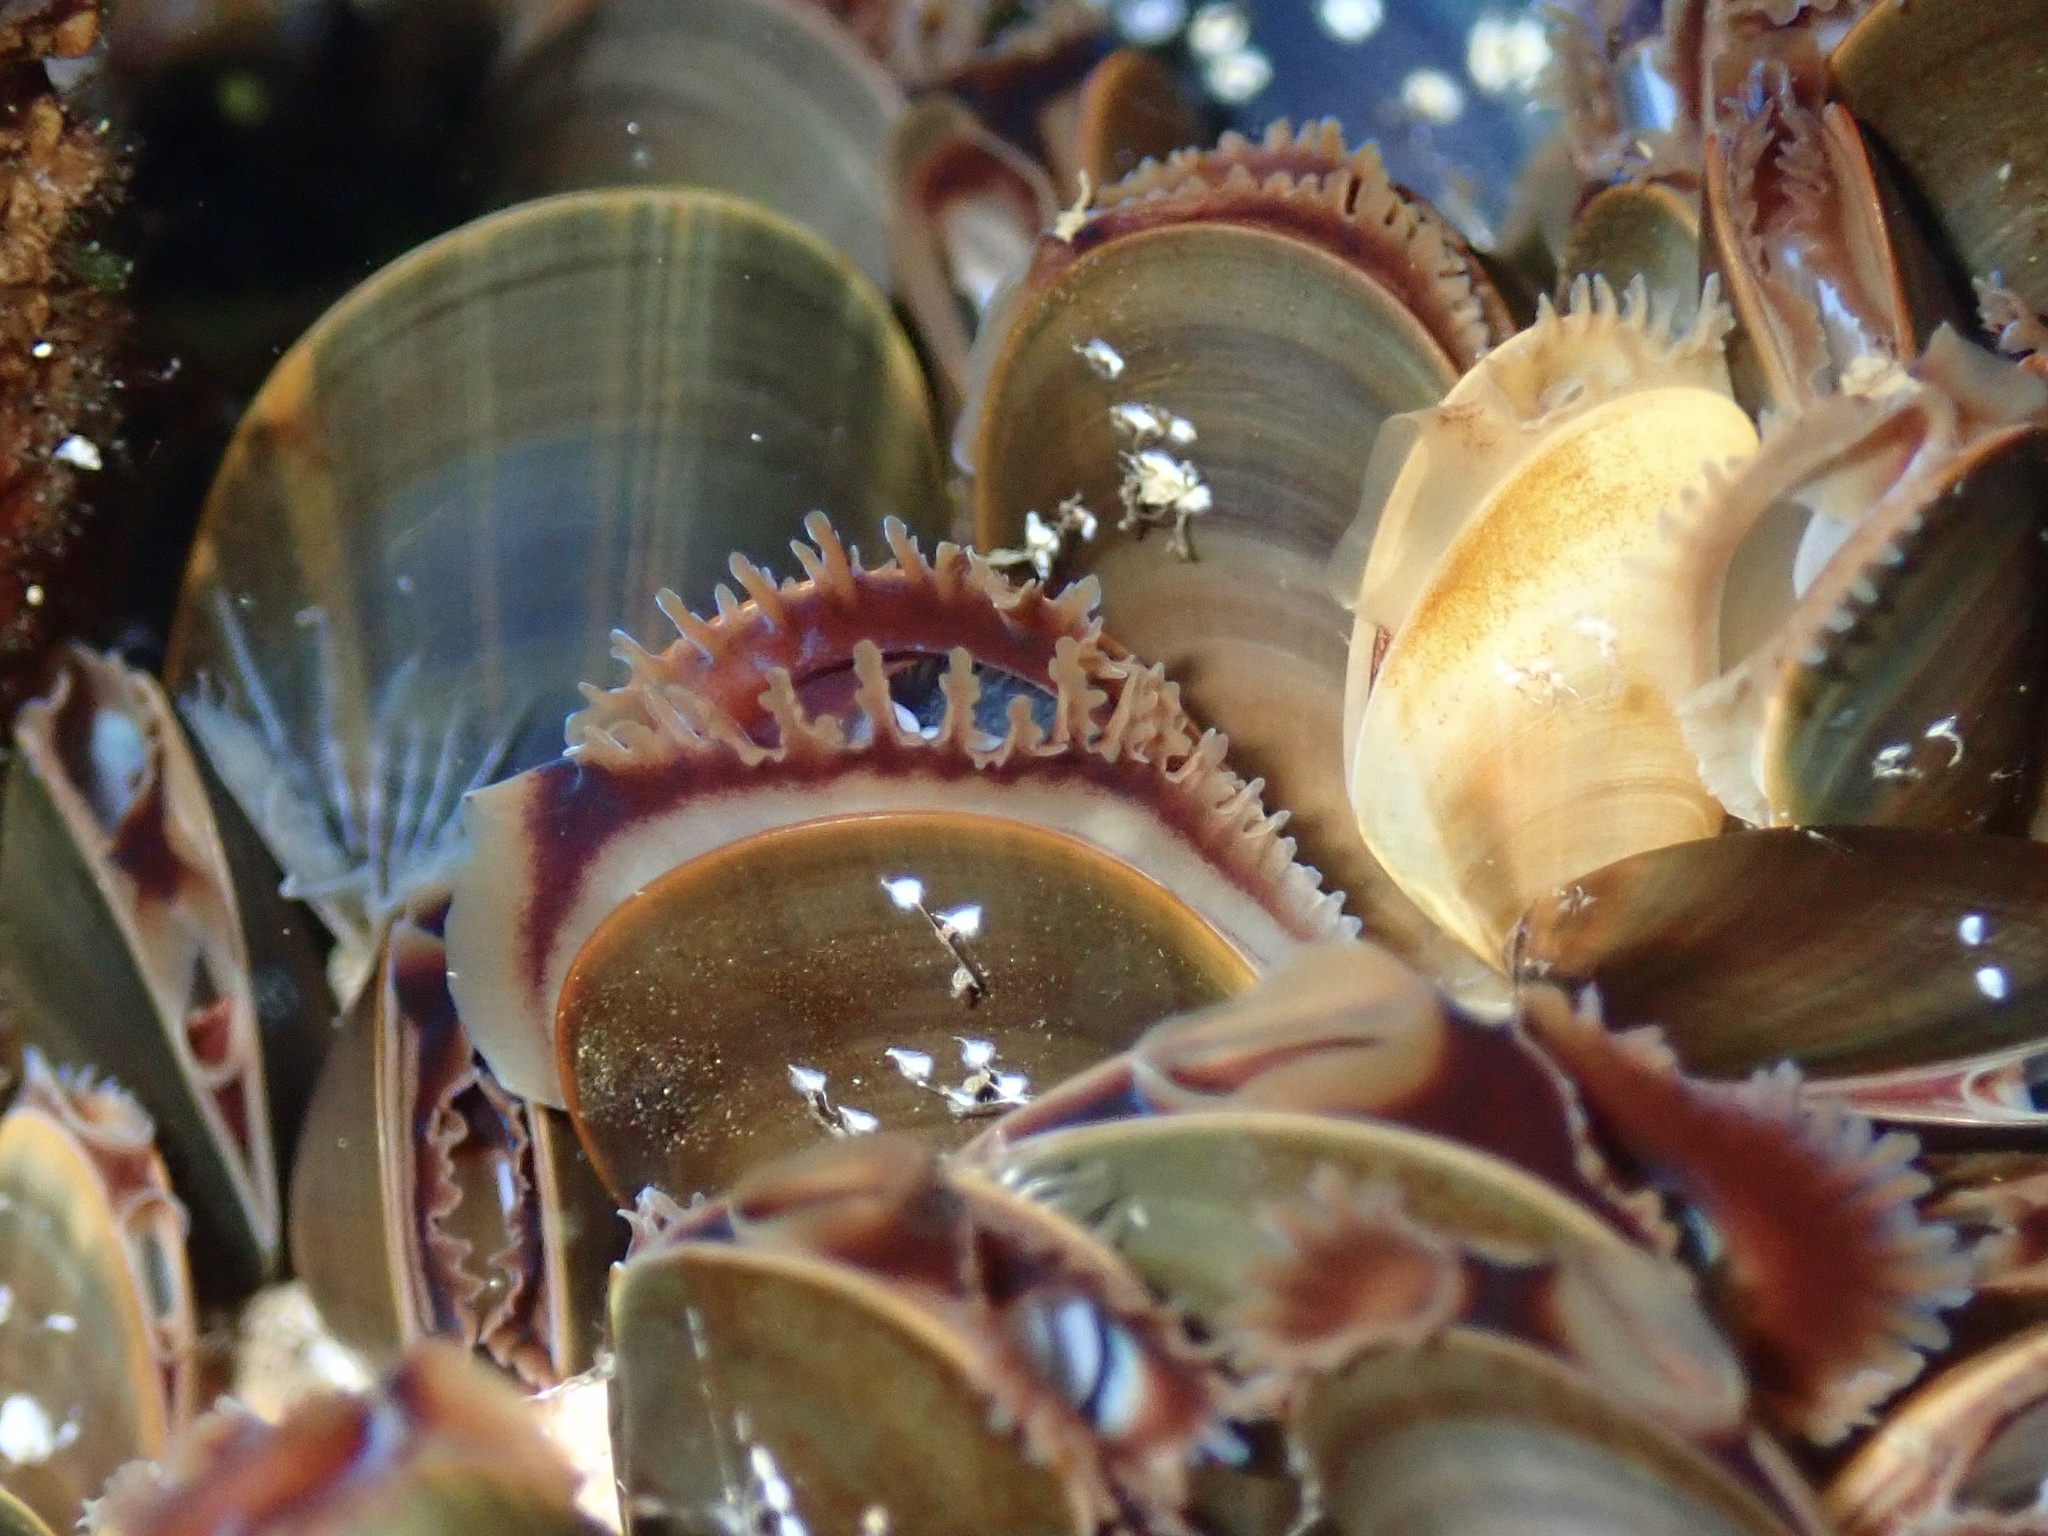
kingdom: Animalia
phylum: Mollusca
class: Bivalvia
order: Mytilida
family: Mytilidae
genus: Mytilus
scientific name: Mytilus edulis
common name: Blue mussel
